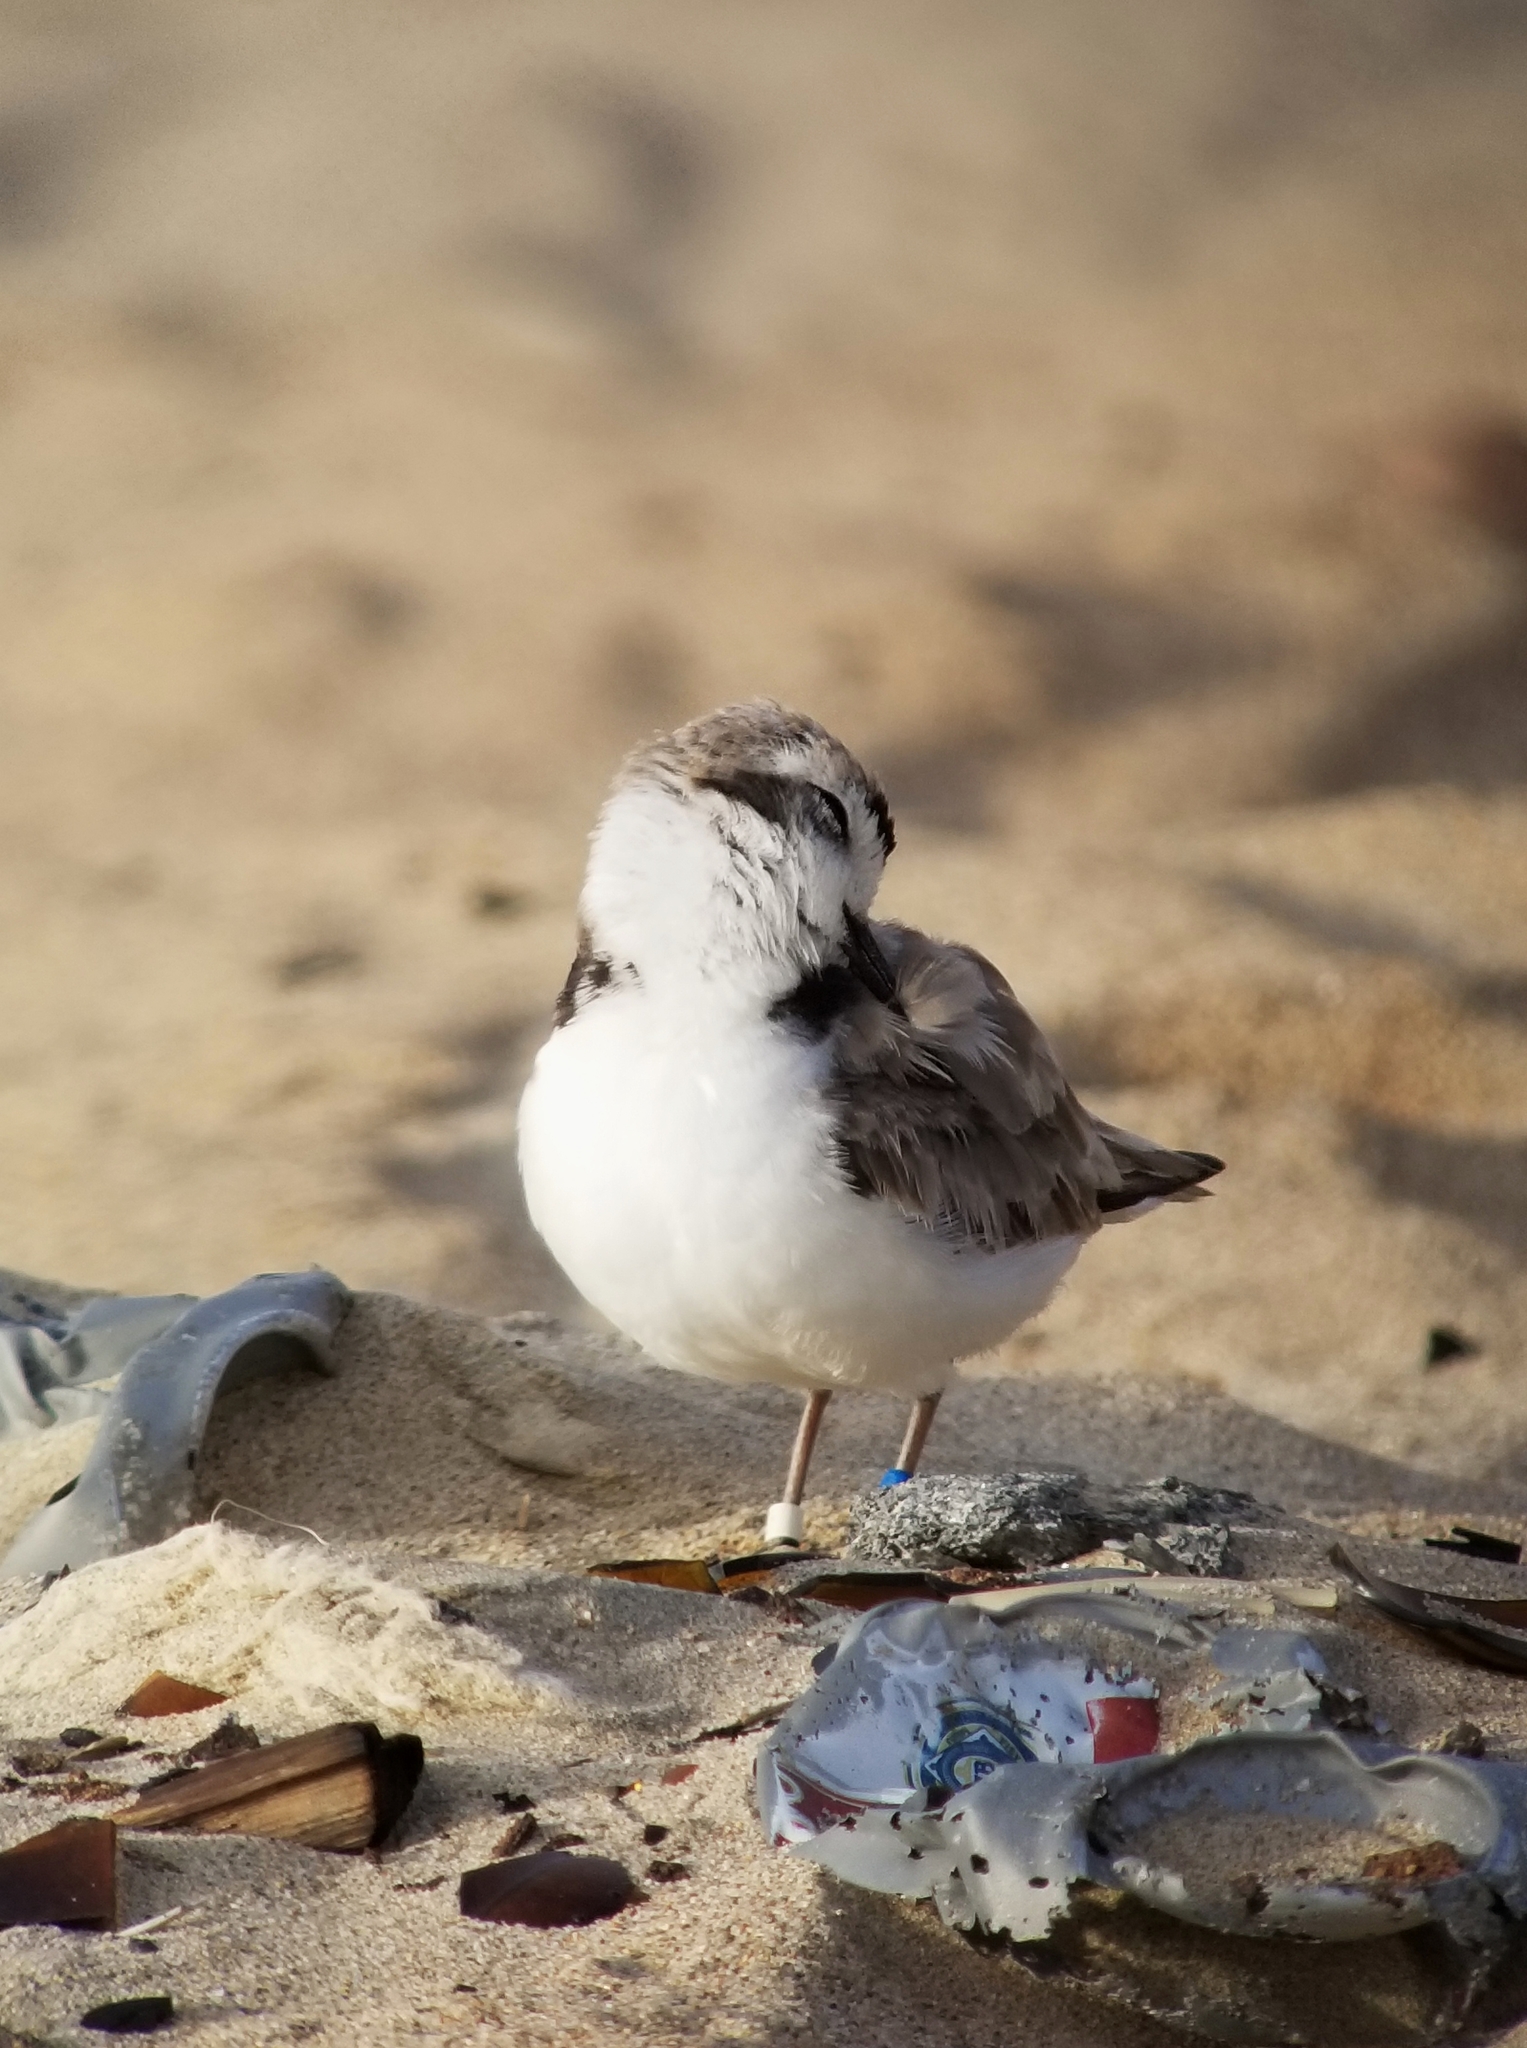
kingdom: Animalia
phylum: Chordata
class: Aves
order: Charadriiformes
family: Charadriidae
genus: Anarhynchus
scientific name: Anarhynchus
